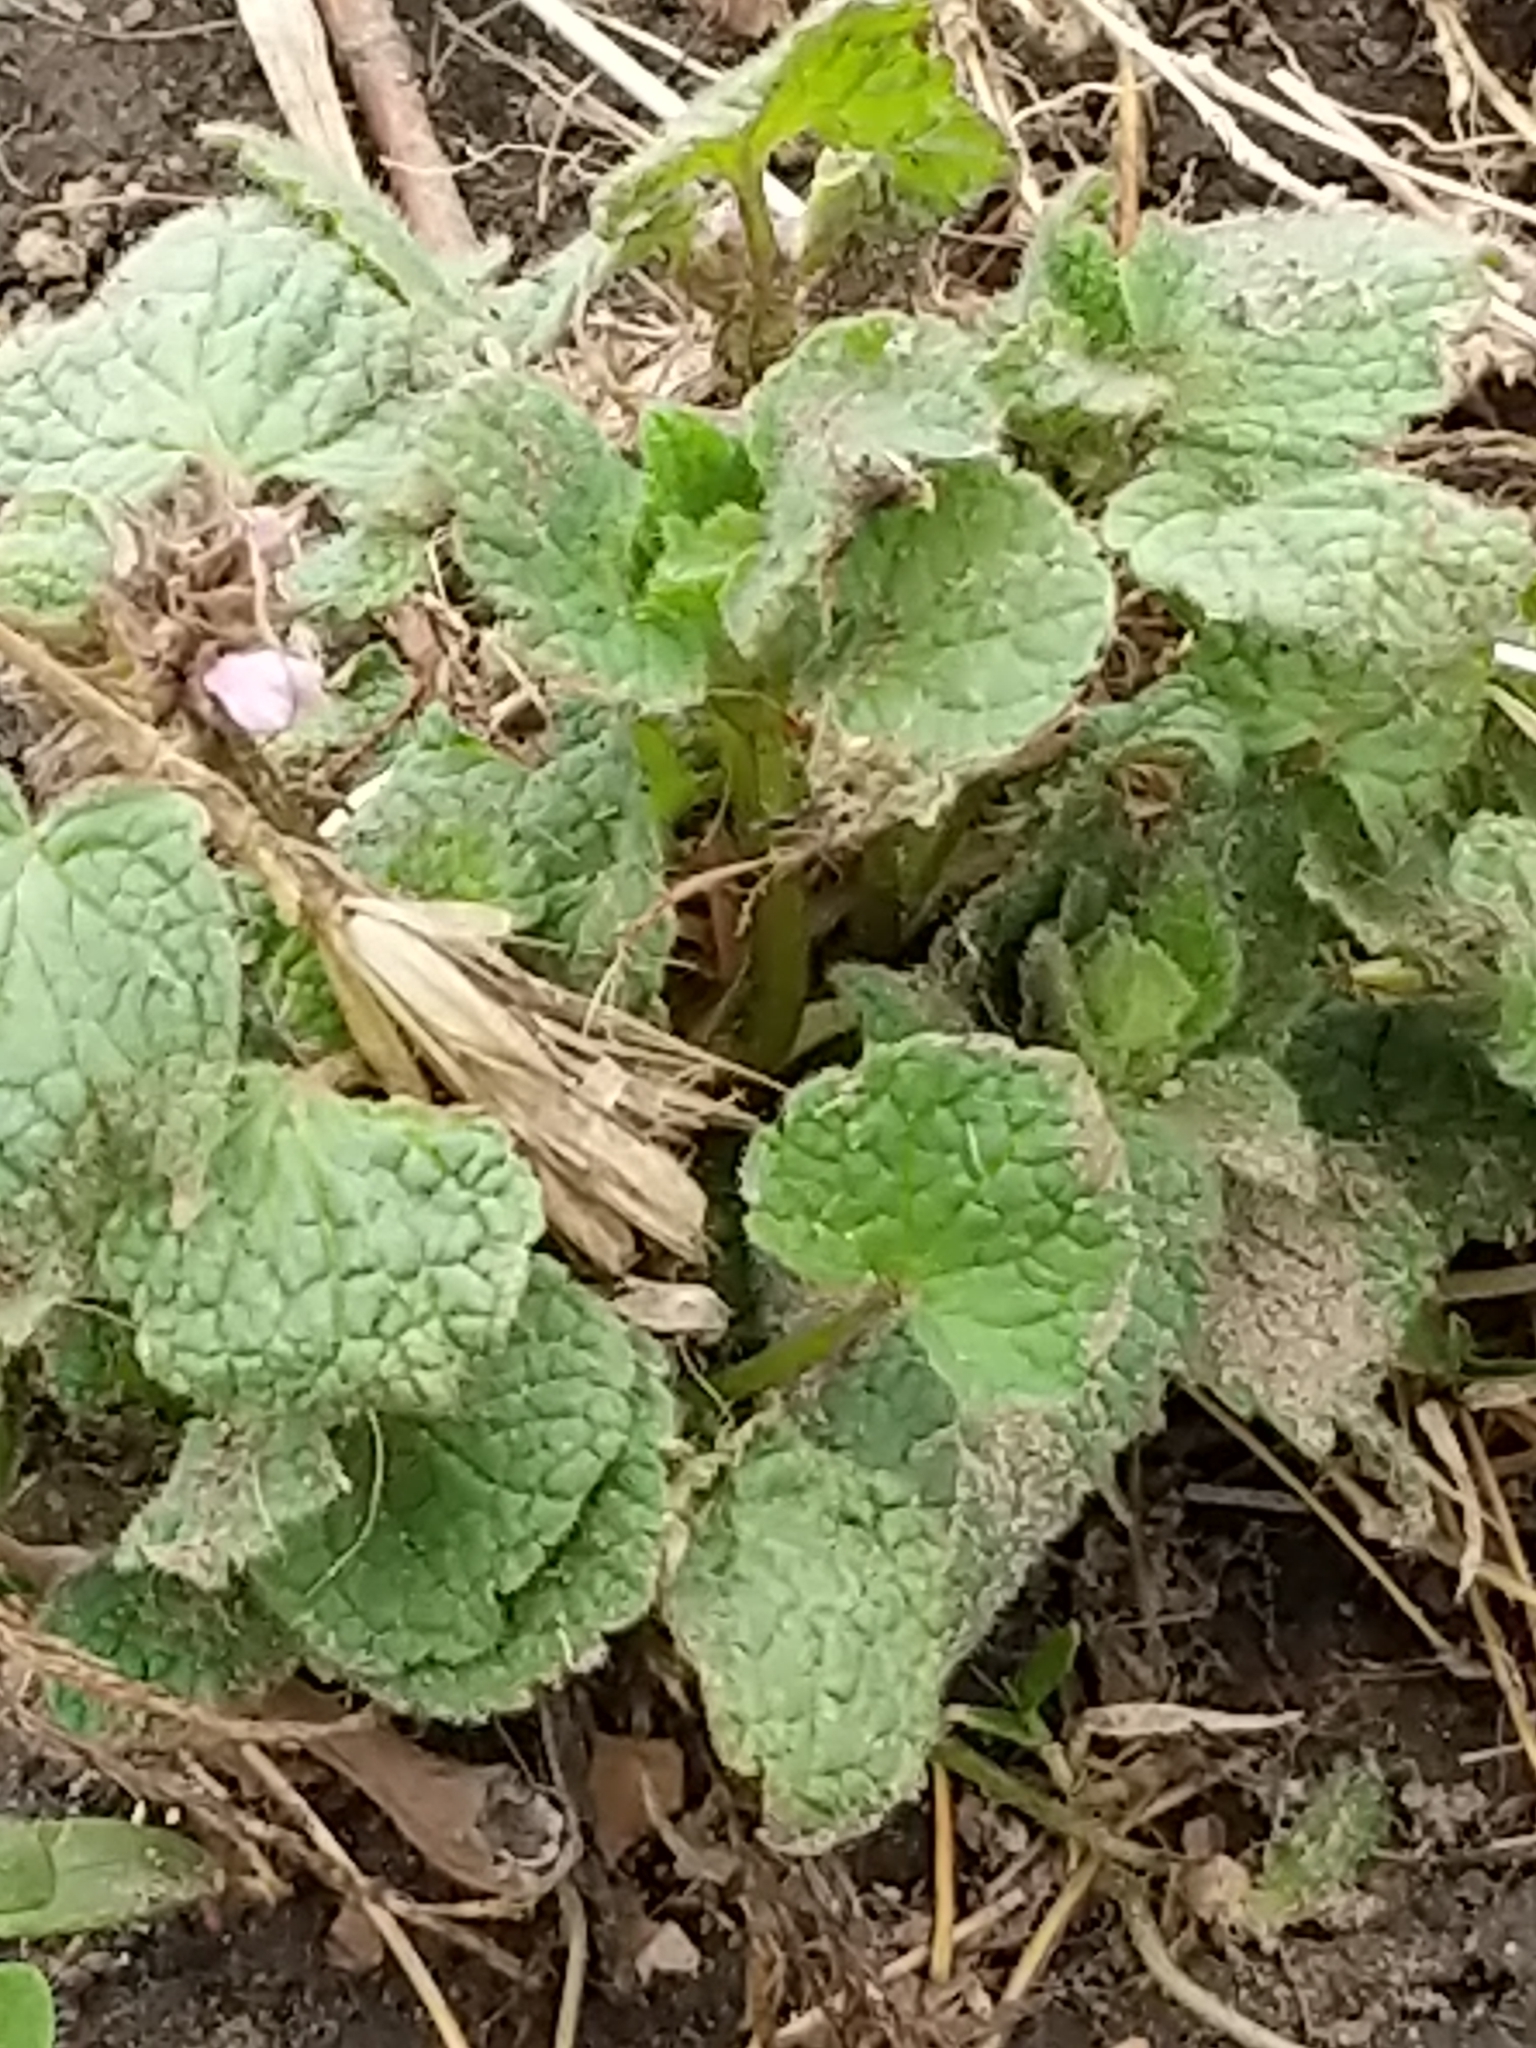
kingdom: Plantae
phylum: Tracheophyta
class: Magnoliopsida
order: Lamiales
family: Lamiaceae
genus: Lamium
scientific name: Lamium purpureum
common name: Red dead-nettle
